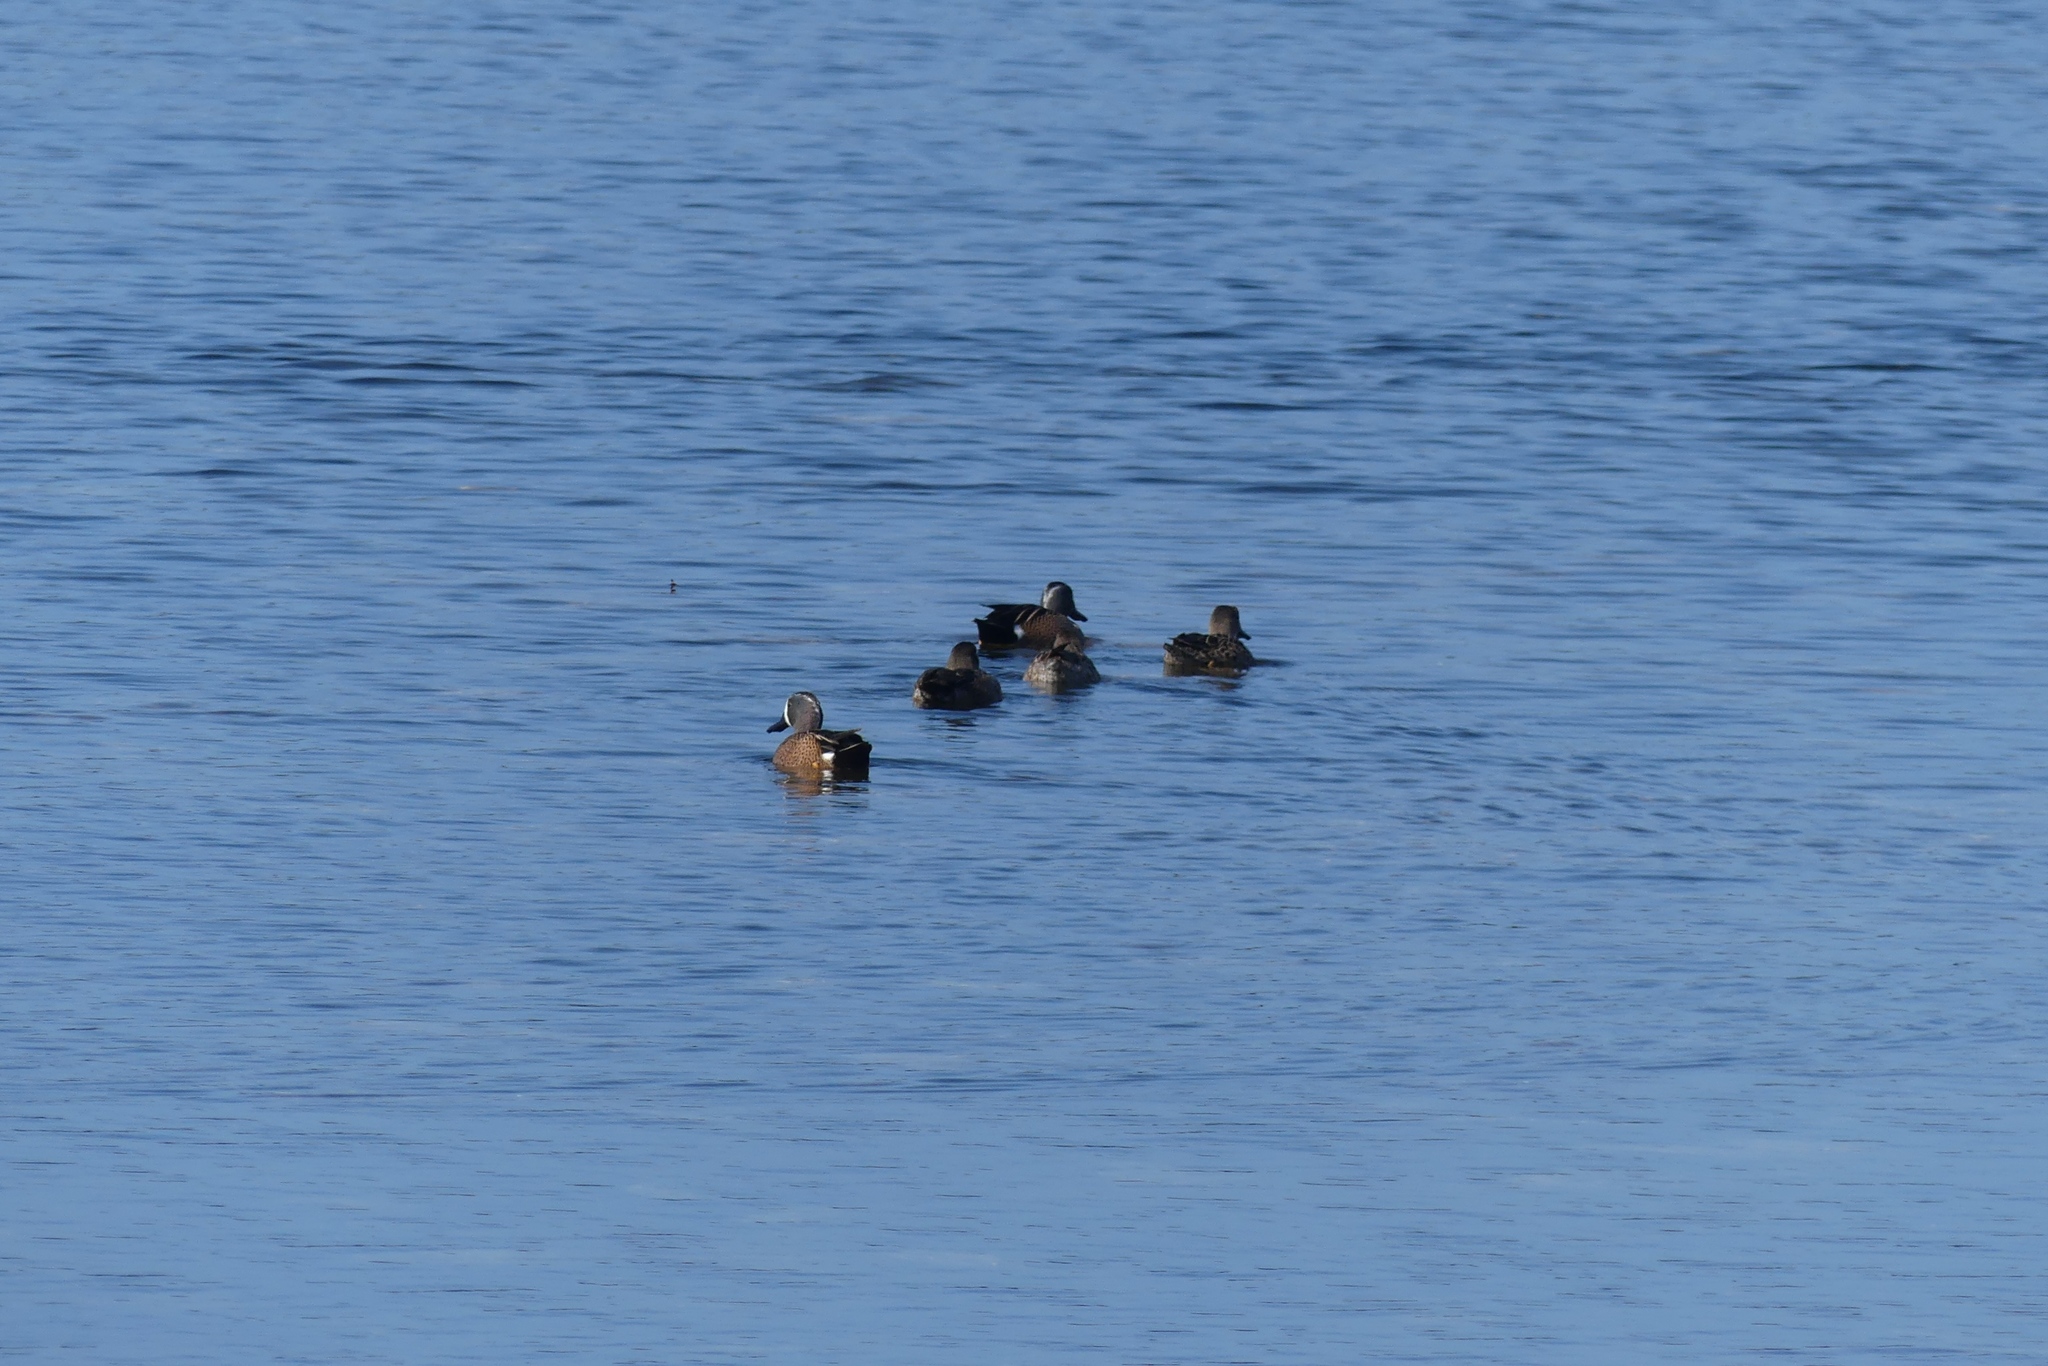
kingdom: Animalia
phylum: Chordata
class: Aves
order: Anseriformes
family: Anatidae
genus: Spatula
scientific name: Spatula discors
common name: Blue-winged teal
